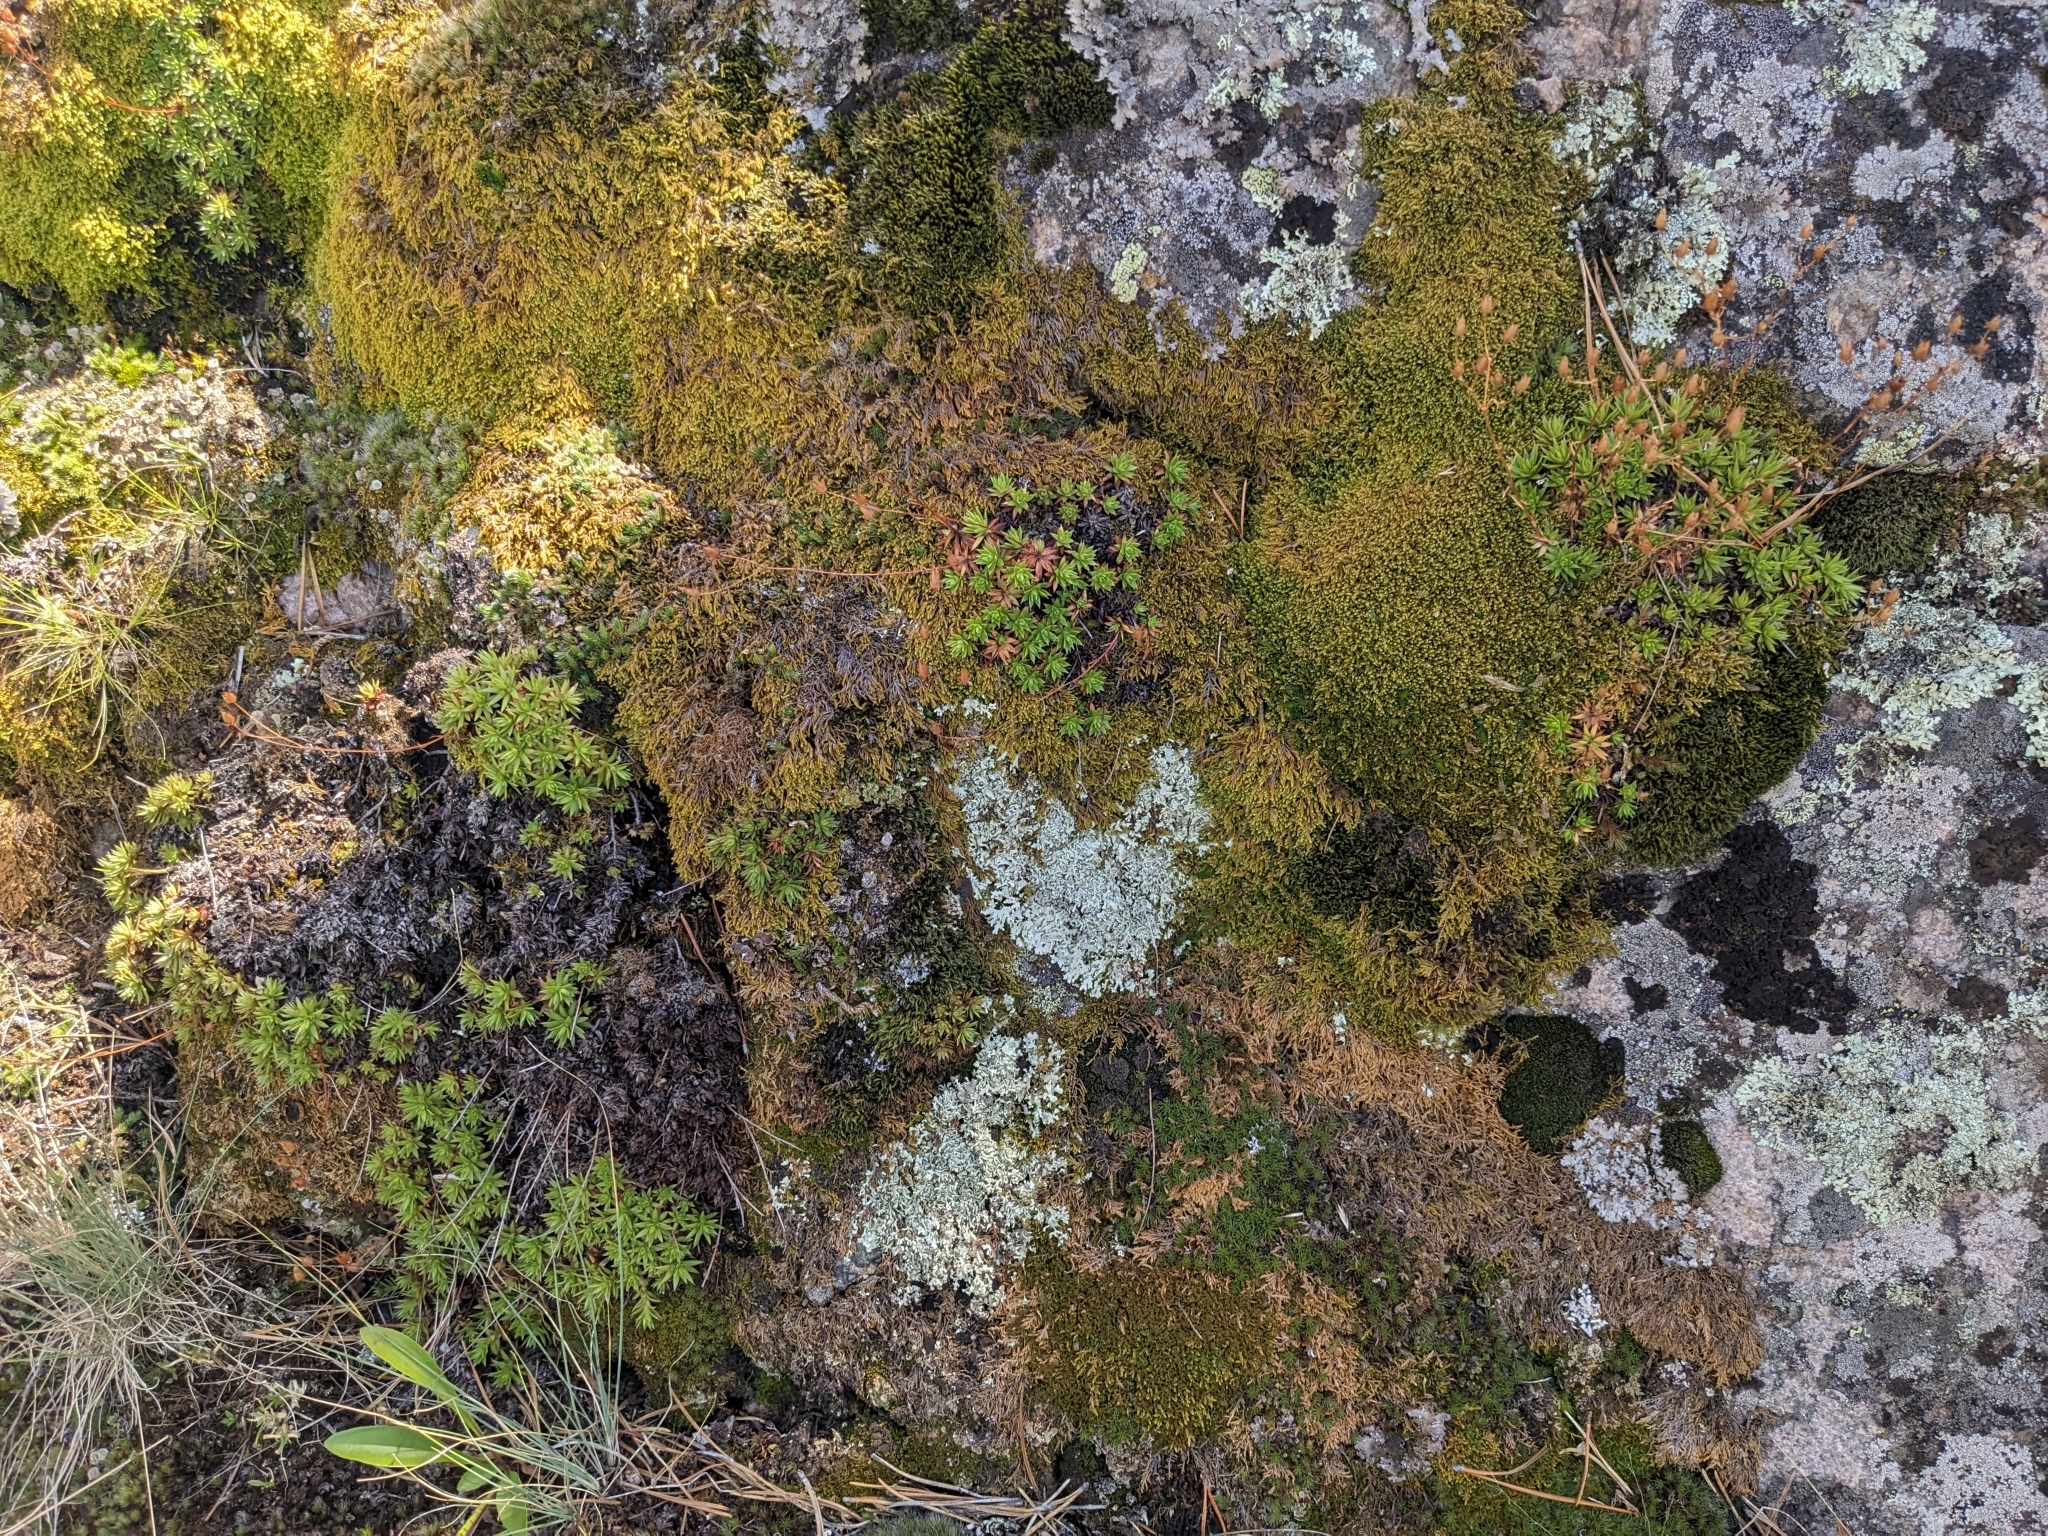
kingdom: Plantae
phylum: Tracheophyta
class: Magnoliopsida
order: Saxifragales
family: Saxifragaceae
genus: Saxifraga
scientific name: Saxifraga bronchialis
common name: Matted saxifrage
